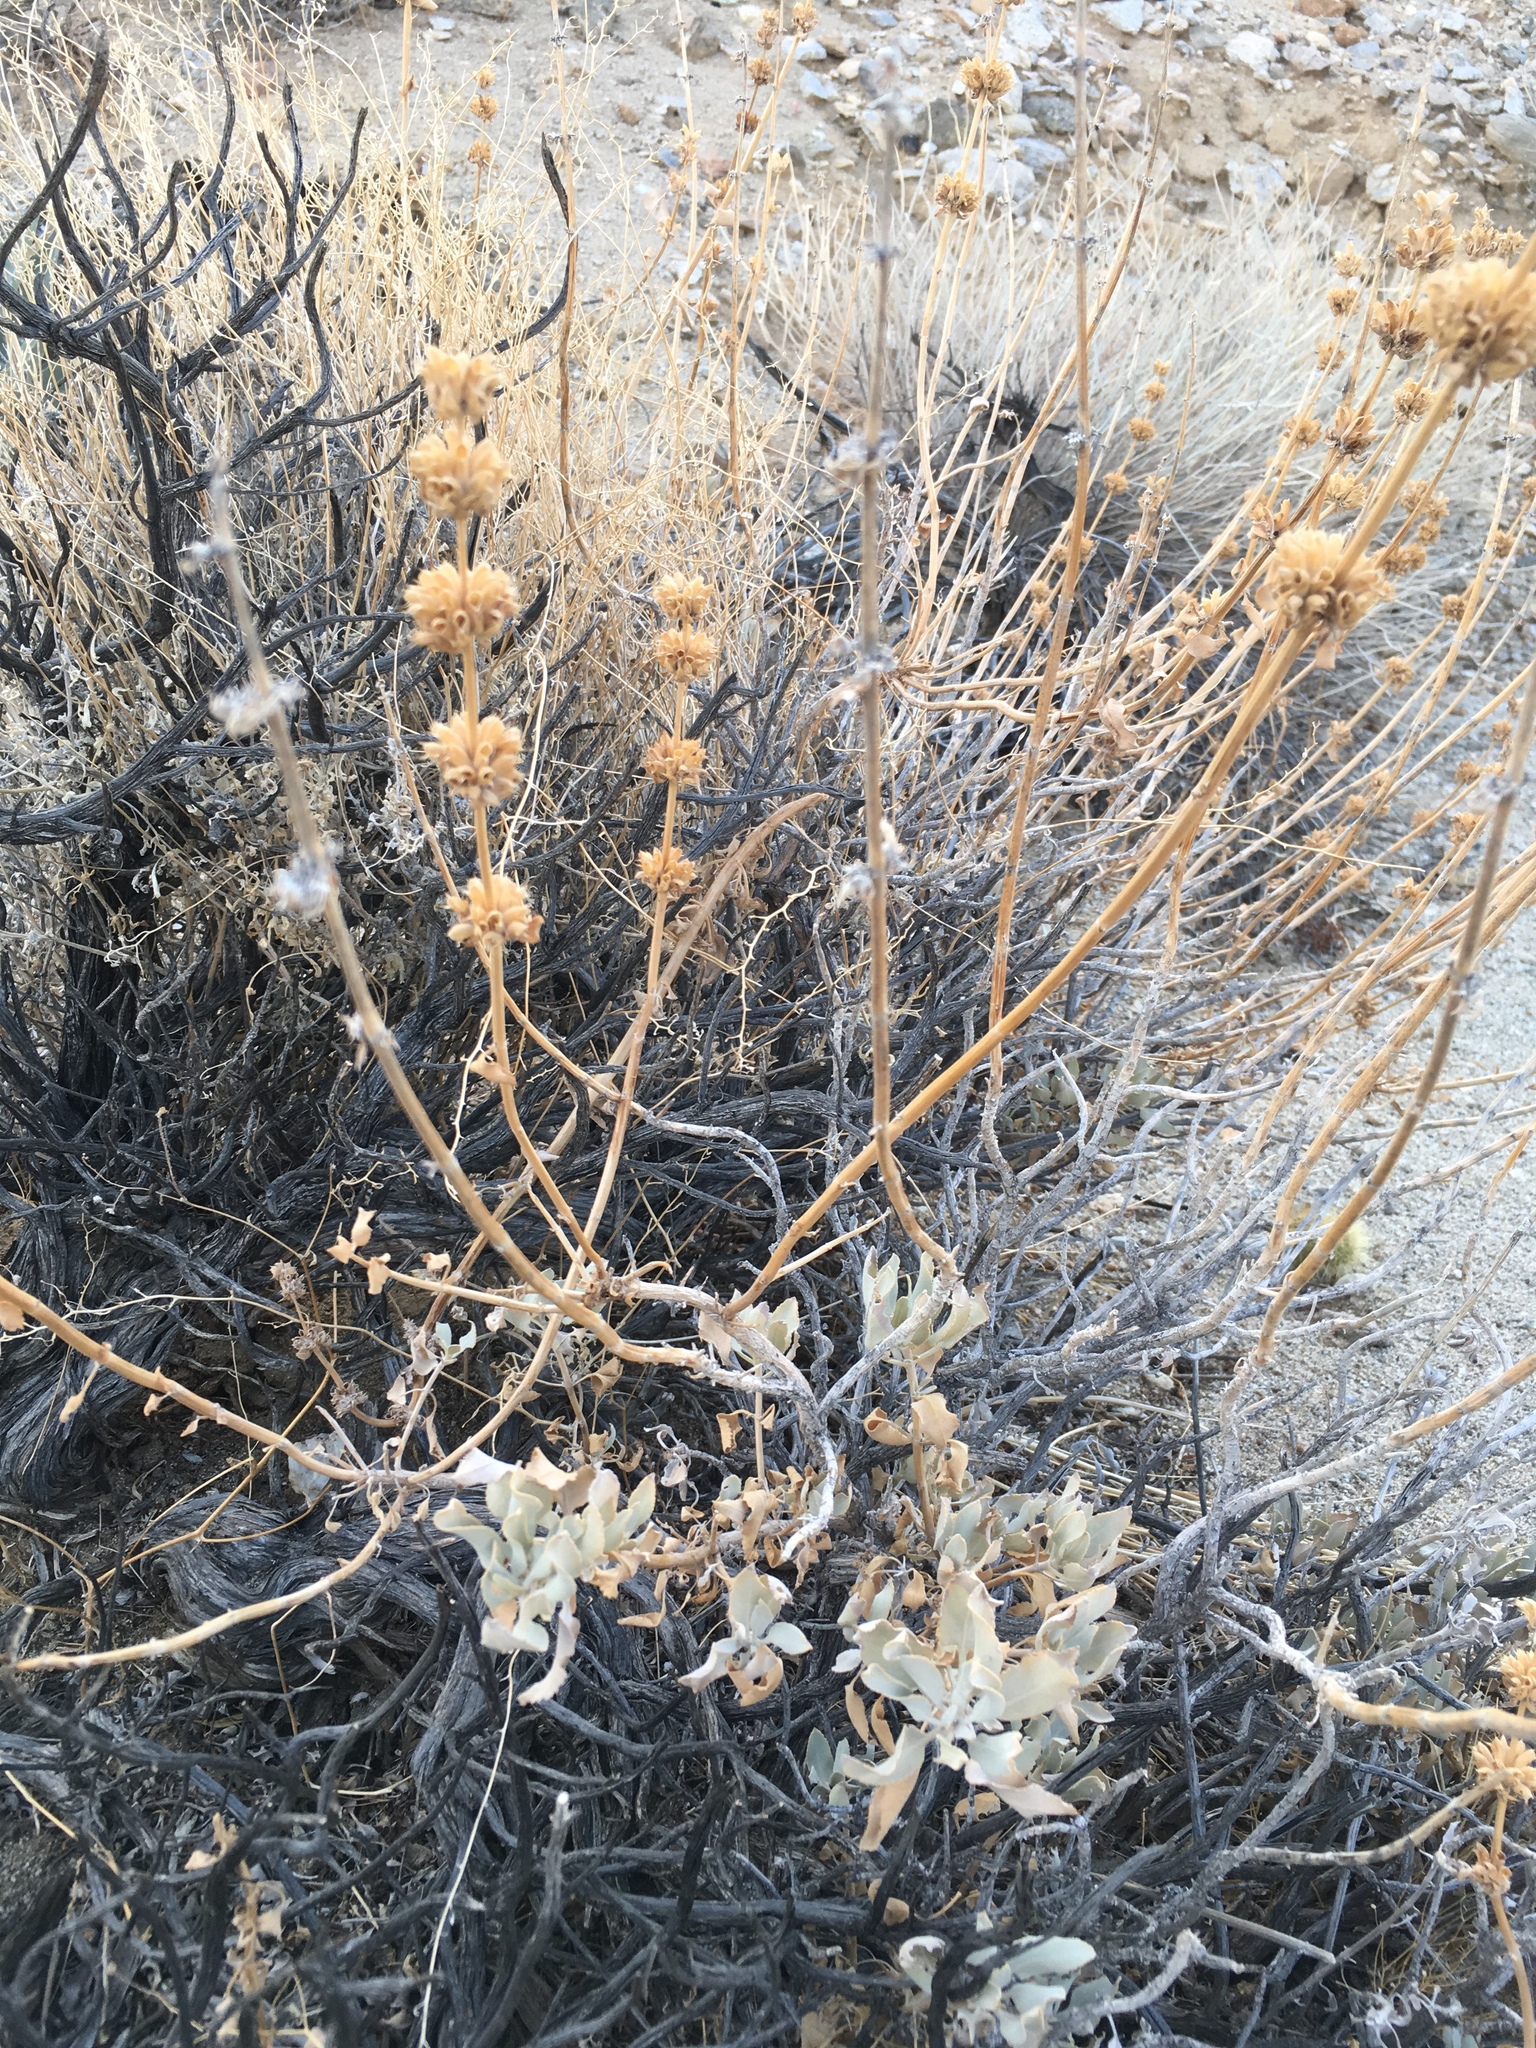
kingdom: Plantae
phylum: Tracheophyta
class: Magnoliopsida
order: Lamiales
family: Lamiaceae
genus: Salvia
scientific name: Salvia vaseyi
